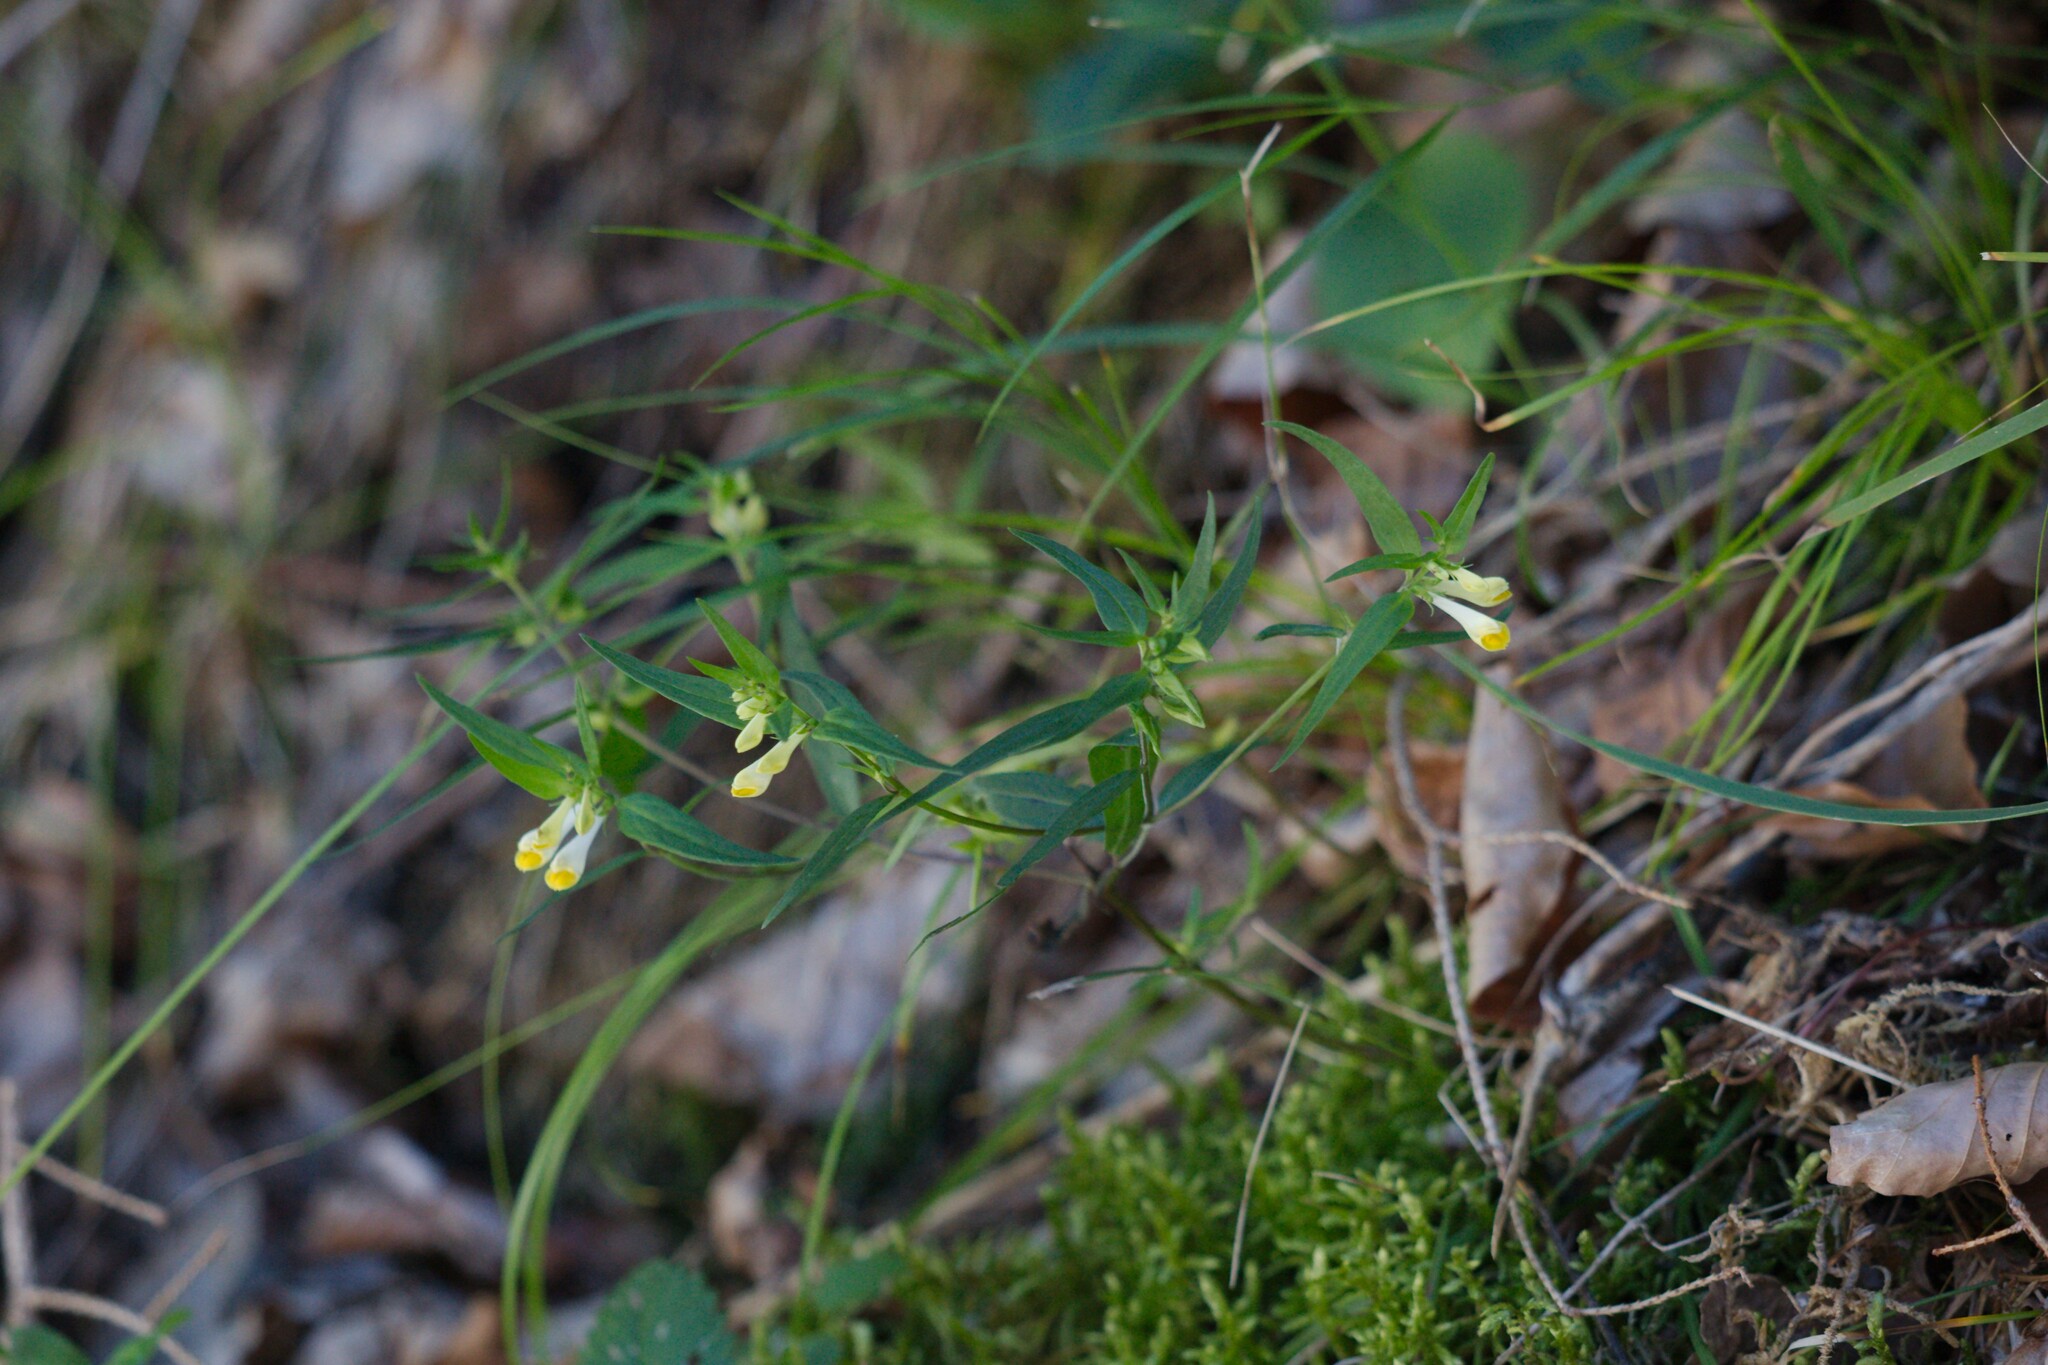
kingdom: Plantae
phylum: Tracheophyta
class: Magnoliopsida
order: Lamiales
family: Orobanchaceae
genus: Melampyrum
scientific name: Melampyrum pratense
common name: Common cow-wheat
